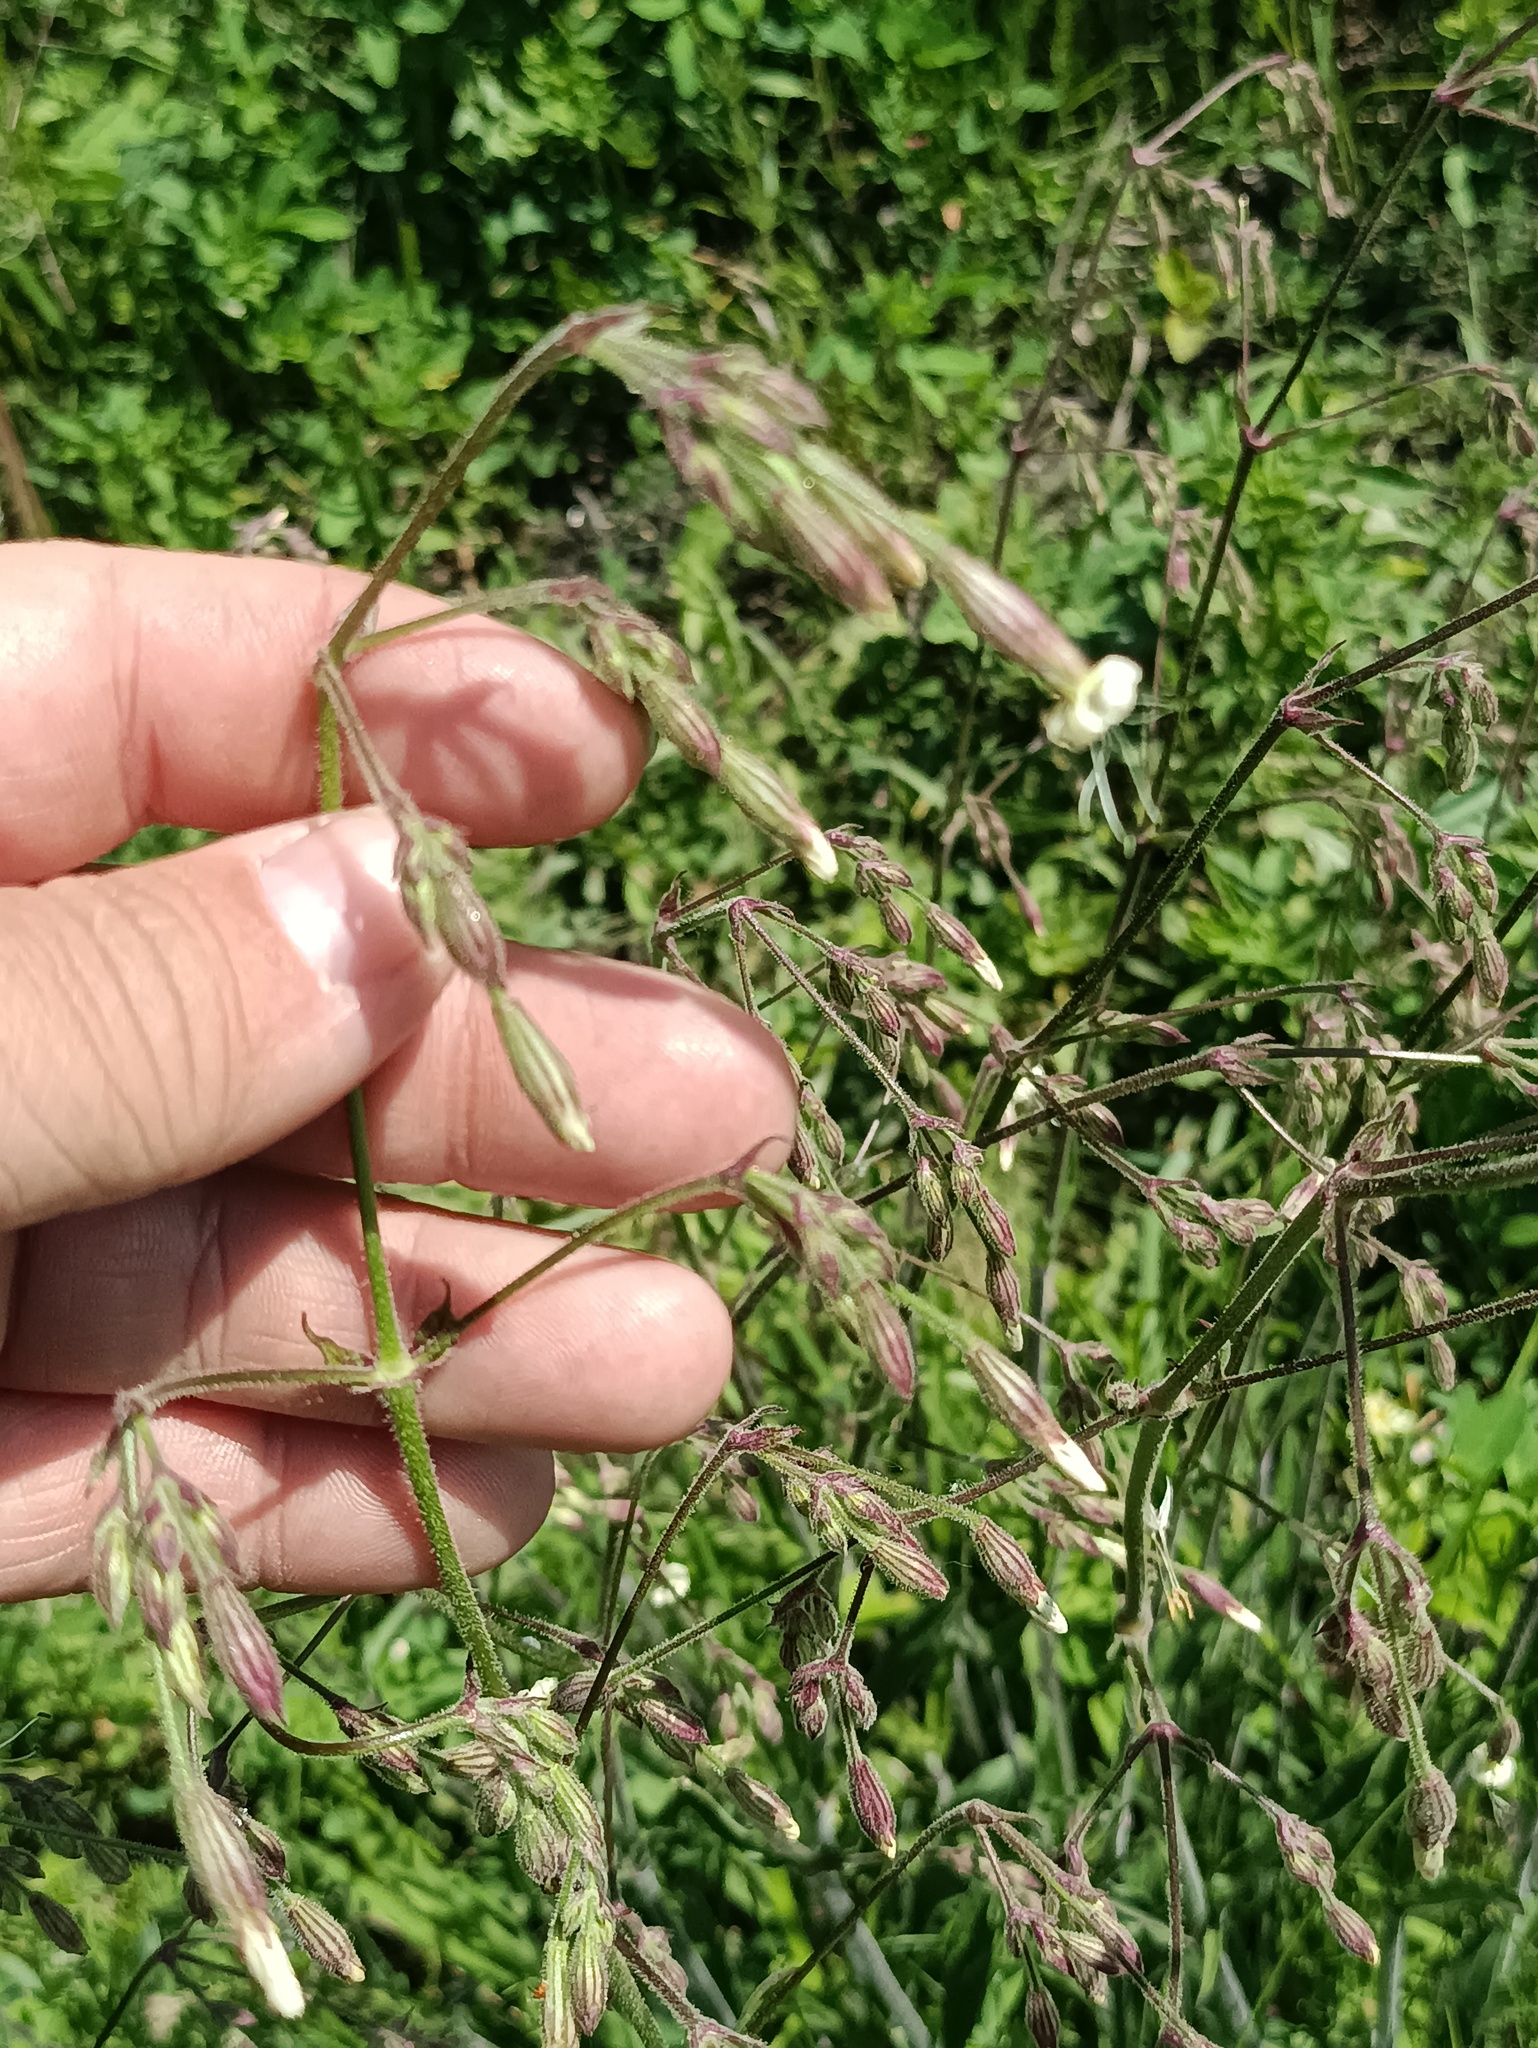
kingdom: Plantae
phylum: Tracheophyta
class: Magnoliopsida
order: Caryophyllales
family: Caryophyllaceae
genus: Silene
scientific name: Silene nutans
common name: Nottingham catchfly
